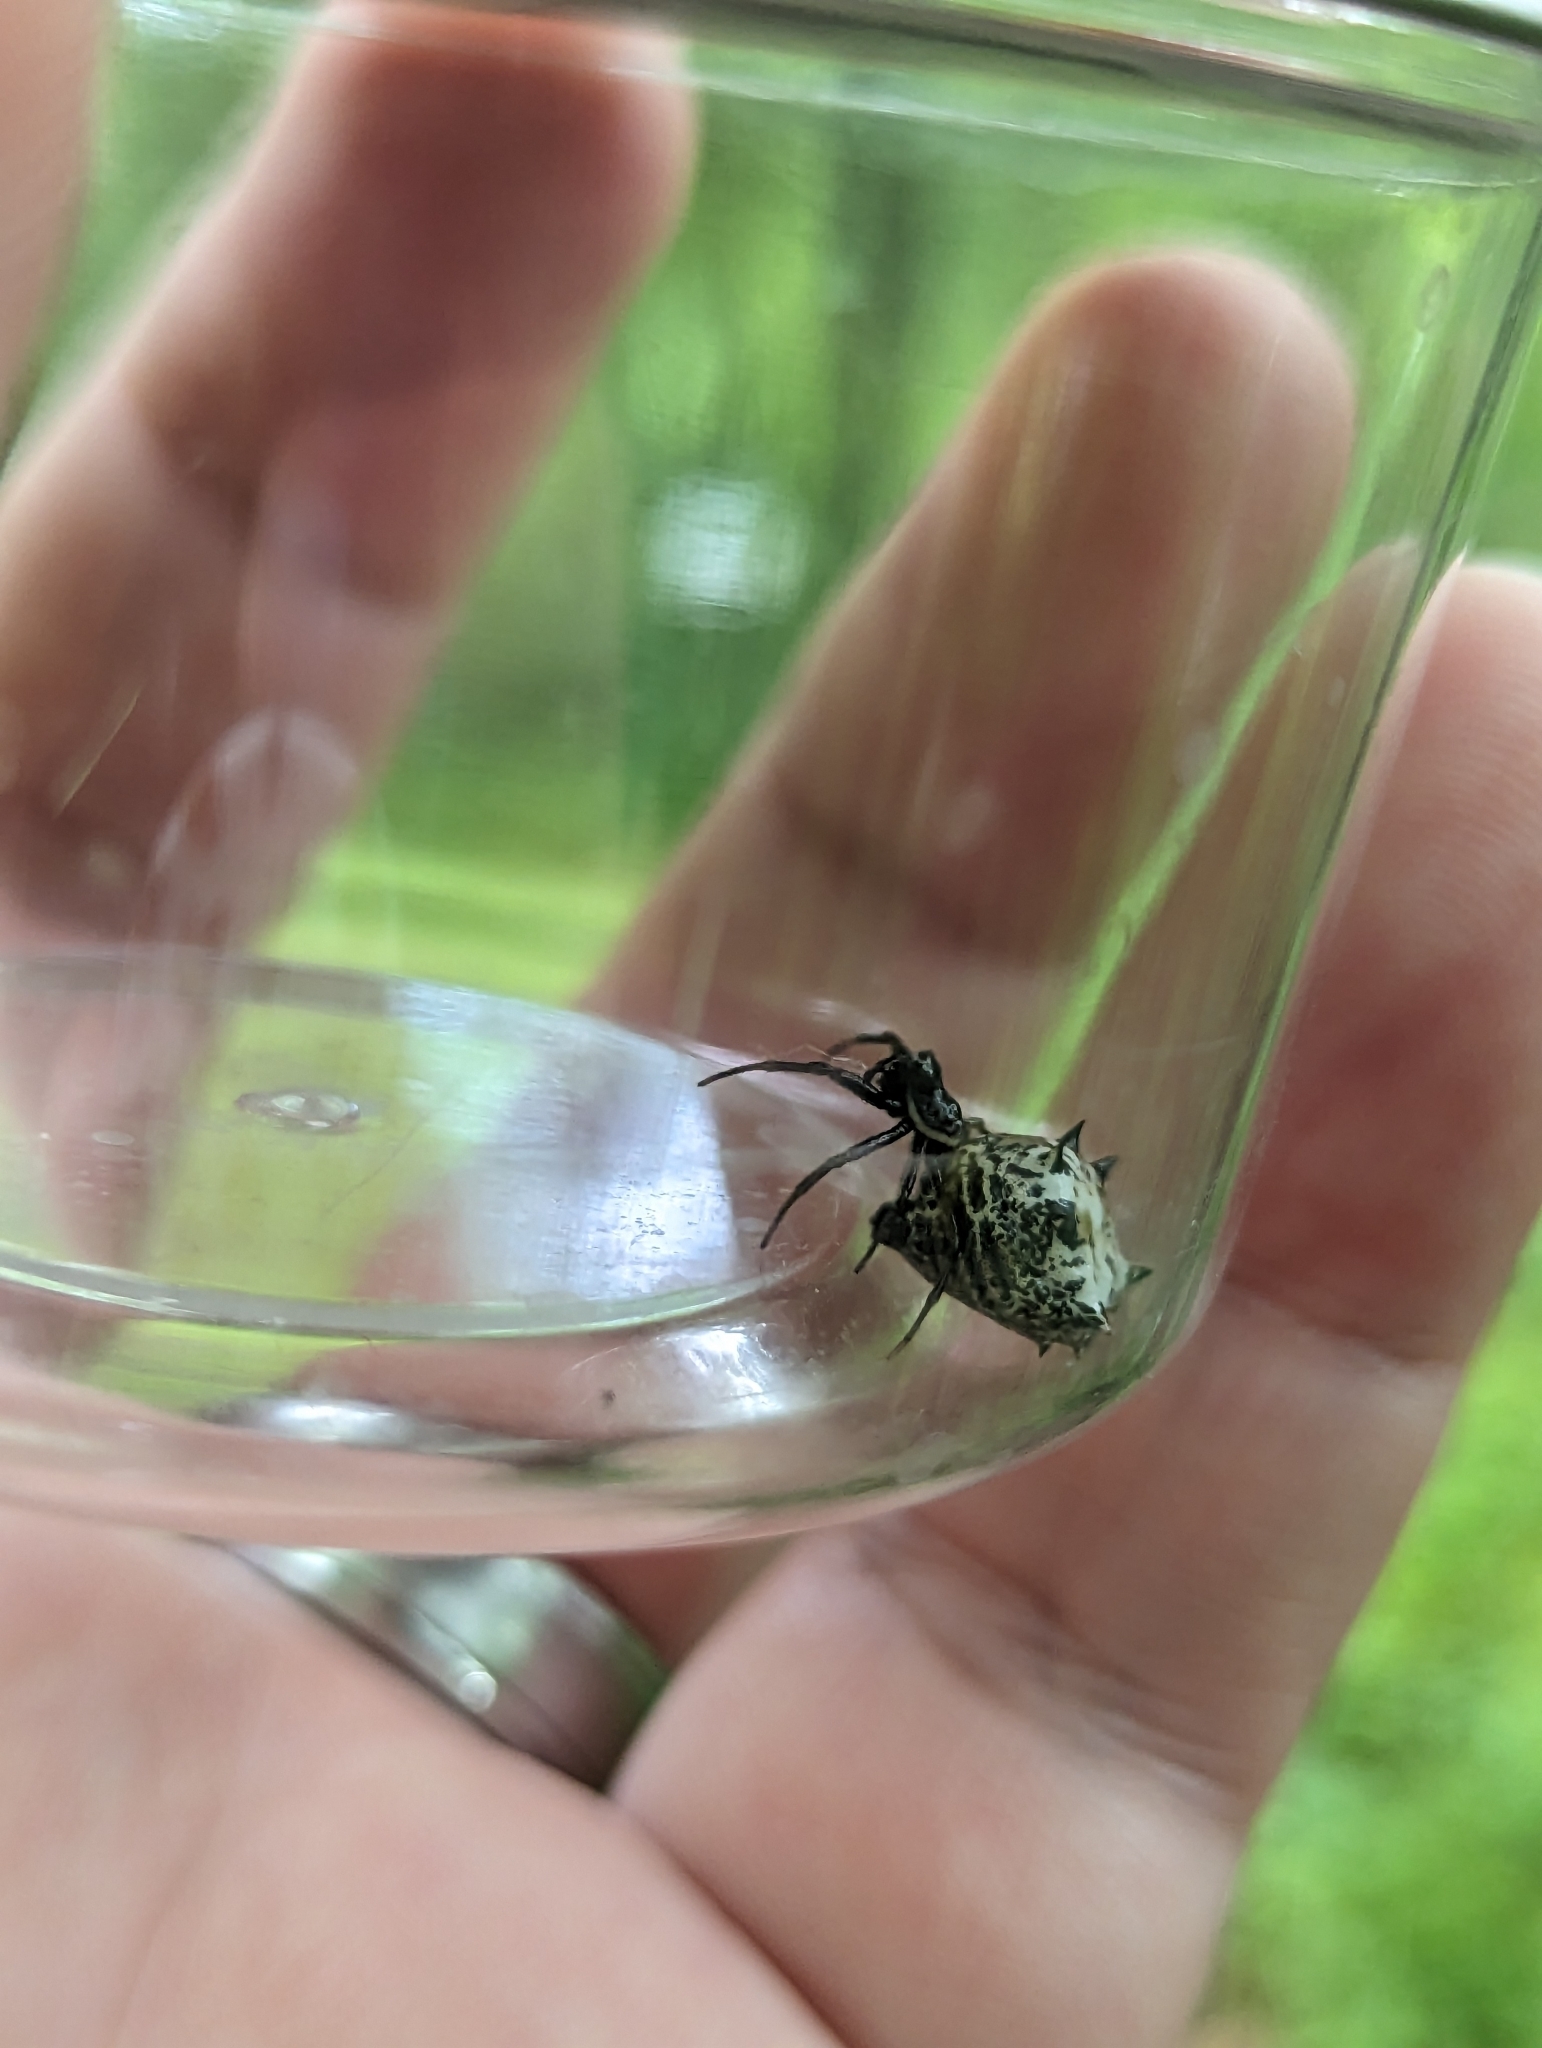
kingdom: Animalia
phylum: Arthropoda
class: Arachnida
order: Araneae
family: Araneidae
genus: Micrathena
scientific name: Micrathena gracilis
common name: Orb weavers
